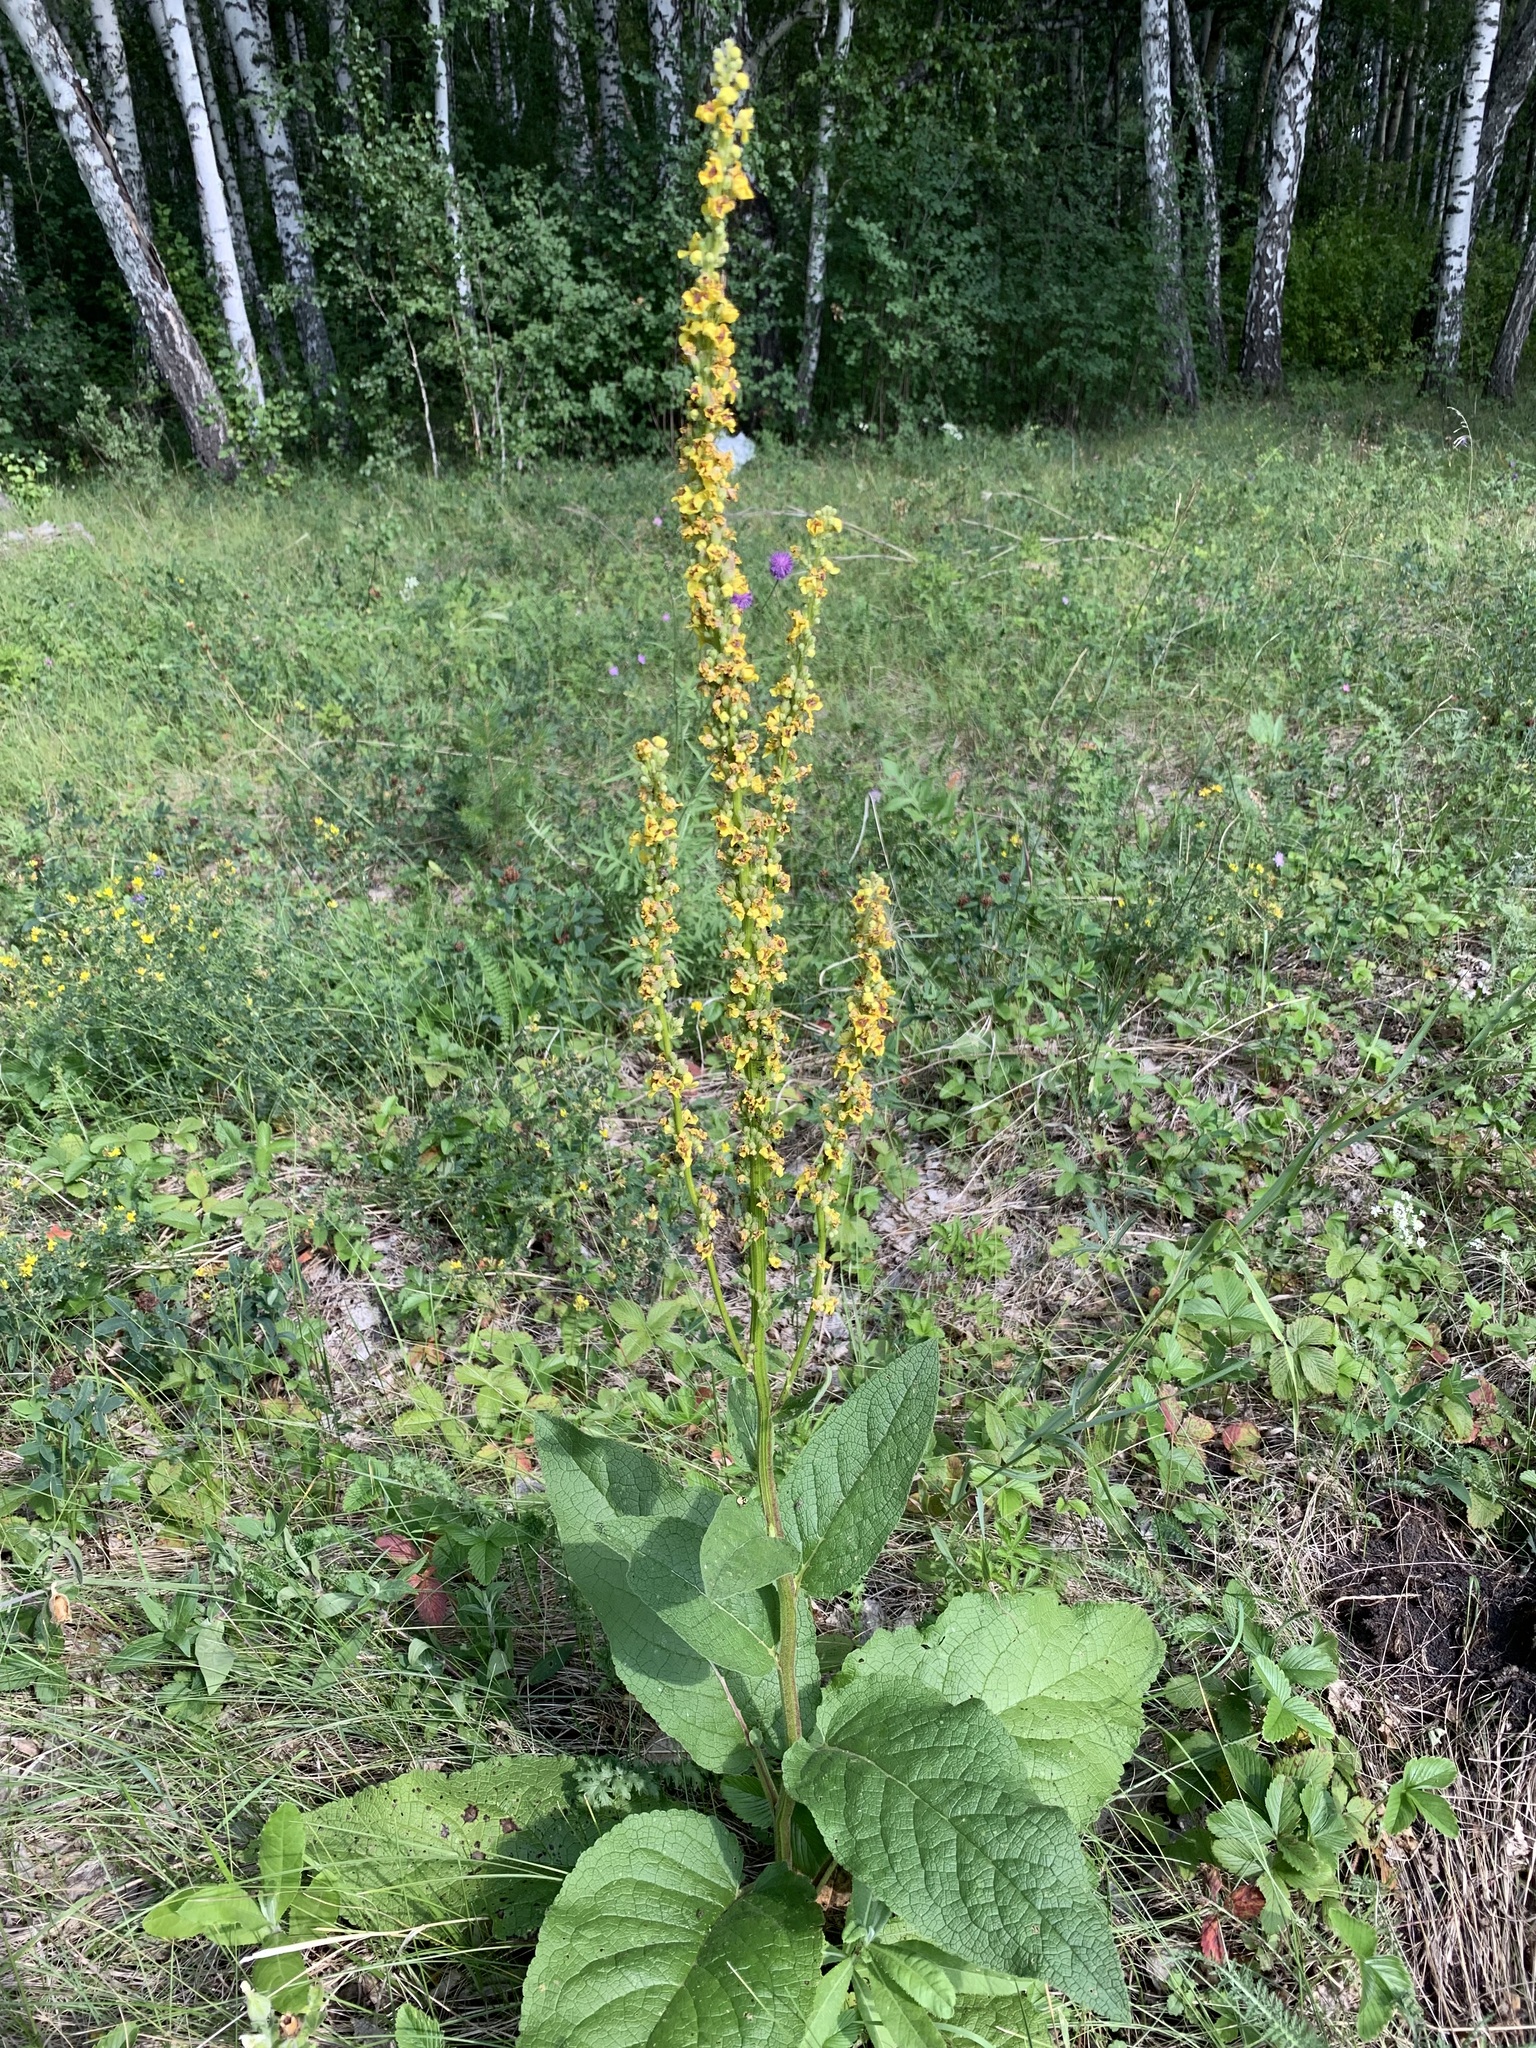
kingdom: Plantae
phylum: Tracheophyta
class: Magnoliopsida
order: Lamiales
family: Scrophulariaceae
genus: Verbascum
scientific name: Verbascum nigrum
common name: Dark mullein
